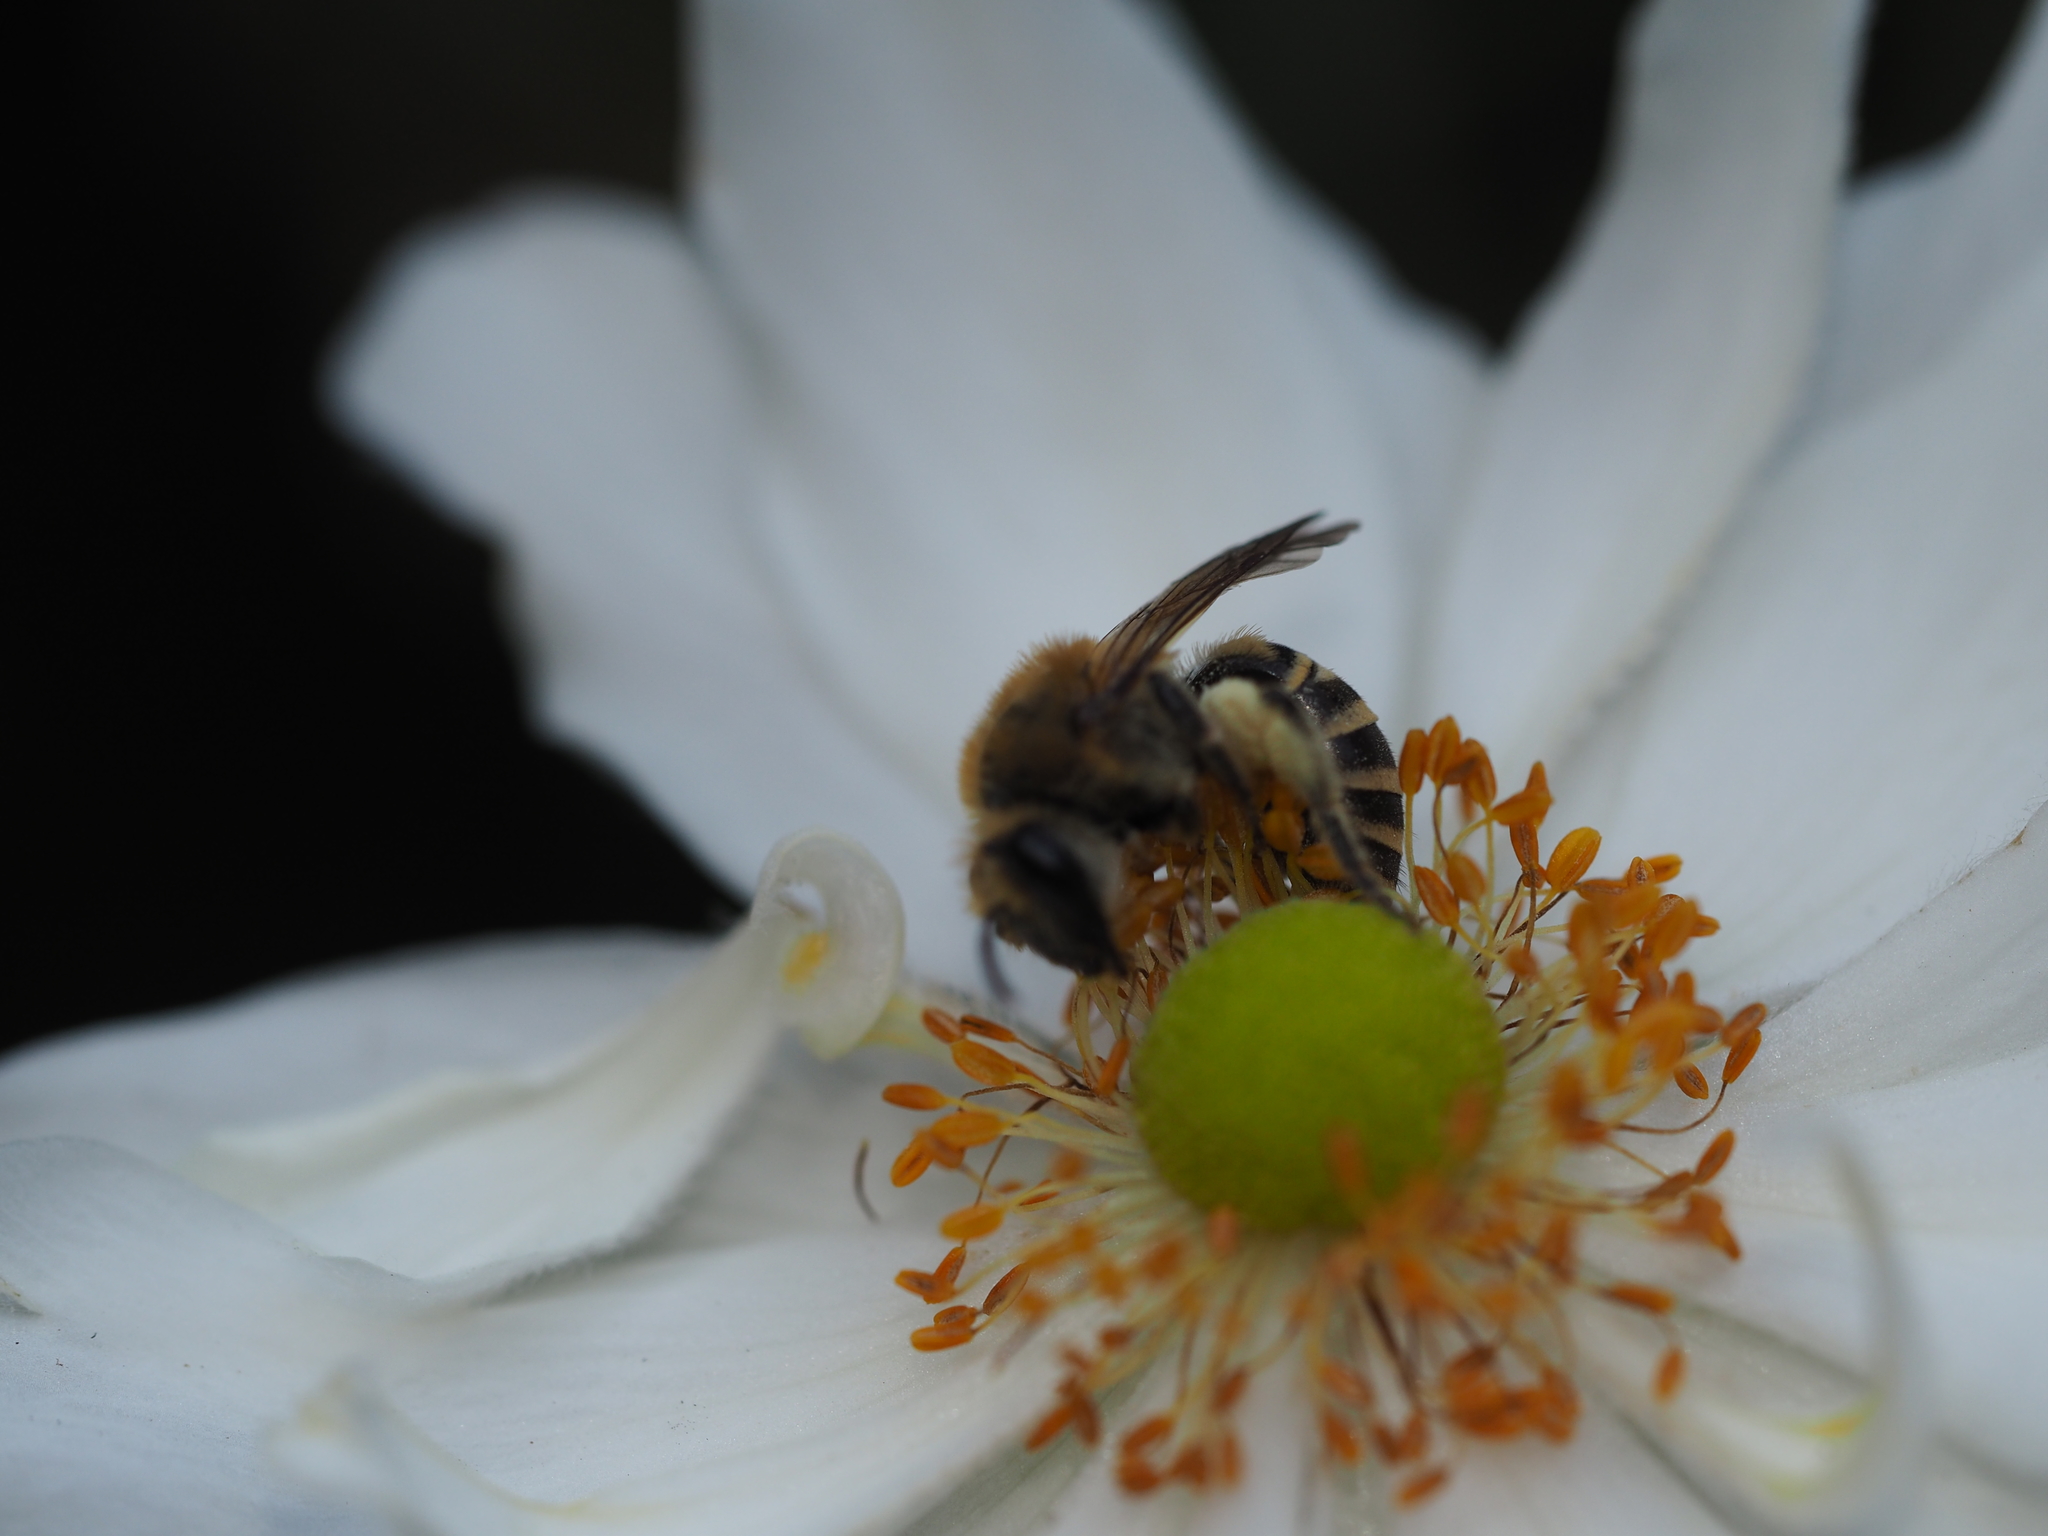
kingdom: Animalia
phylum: Arthropoda
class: Insecta
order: Hymenoptera
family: Colletidae
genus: Colletes
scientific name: Colletes
